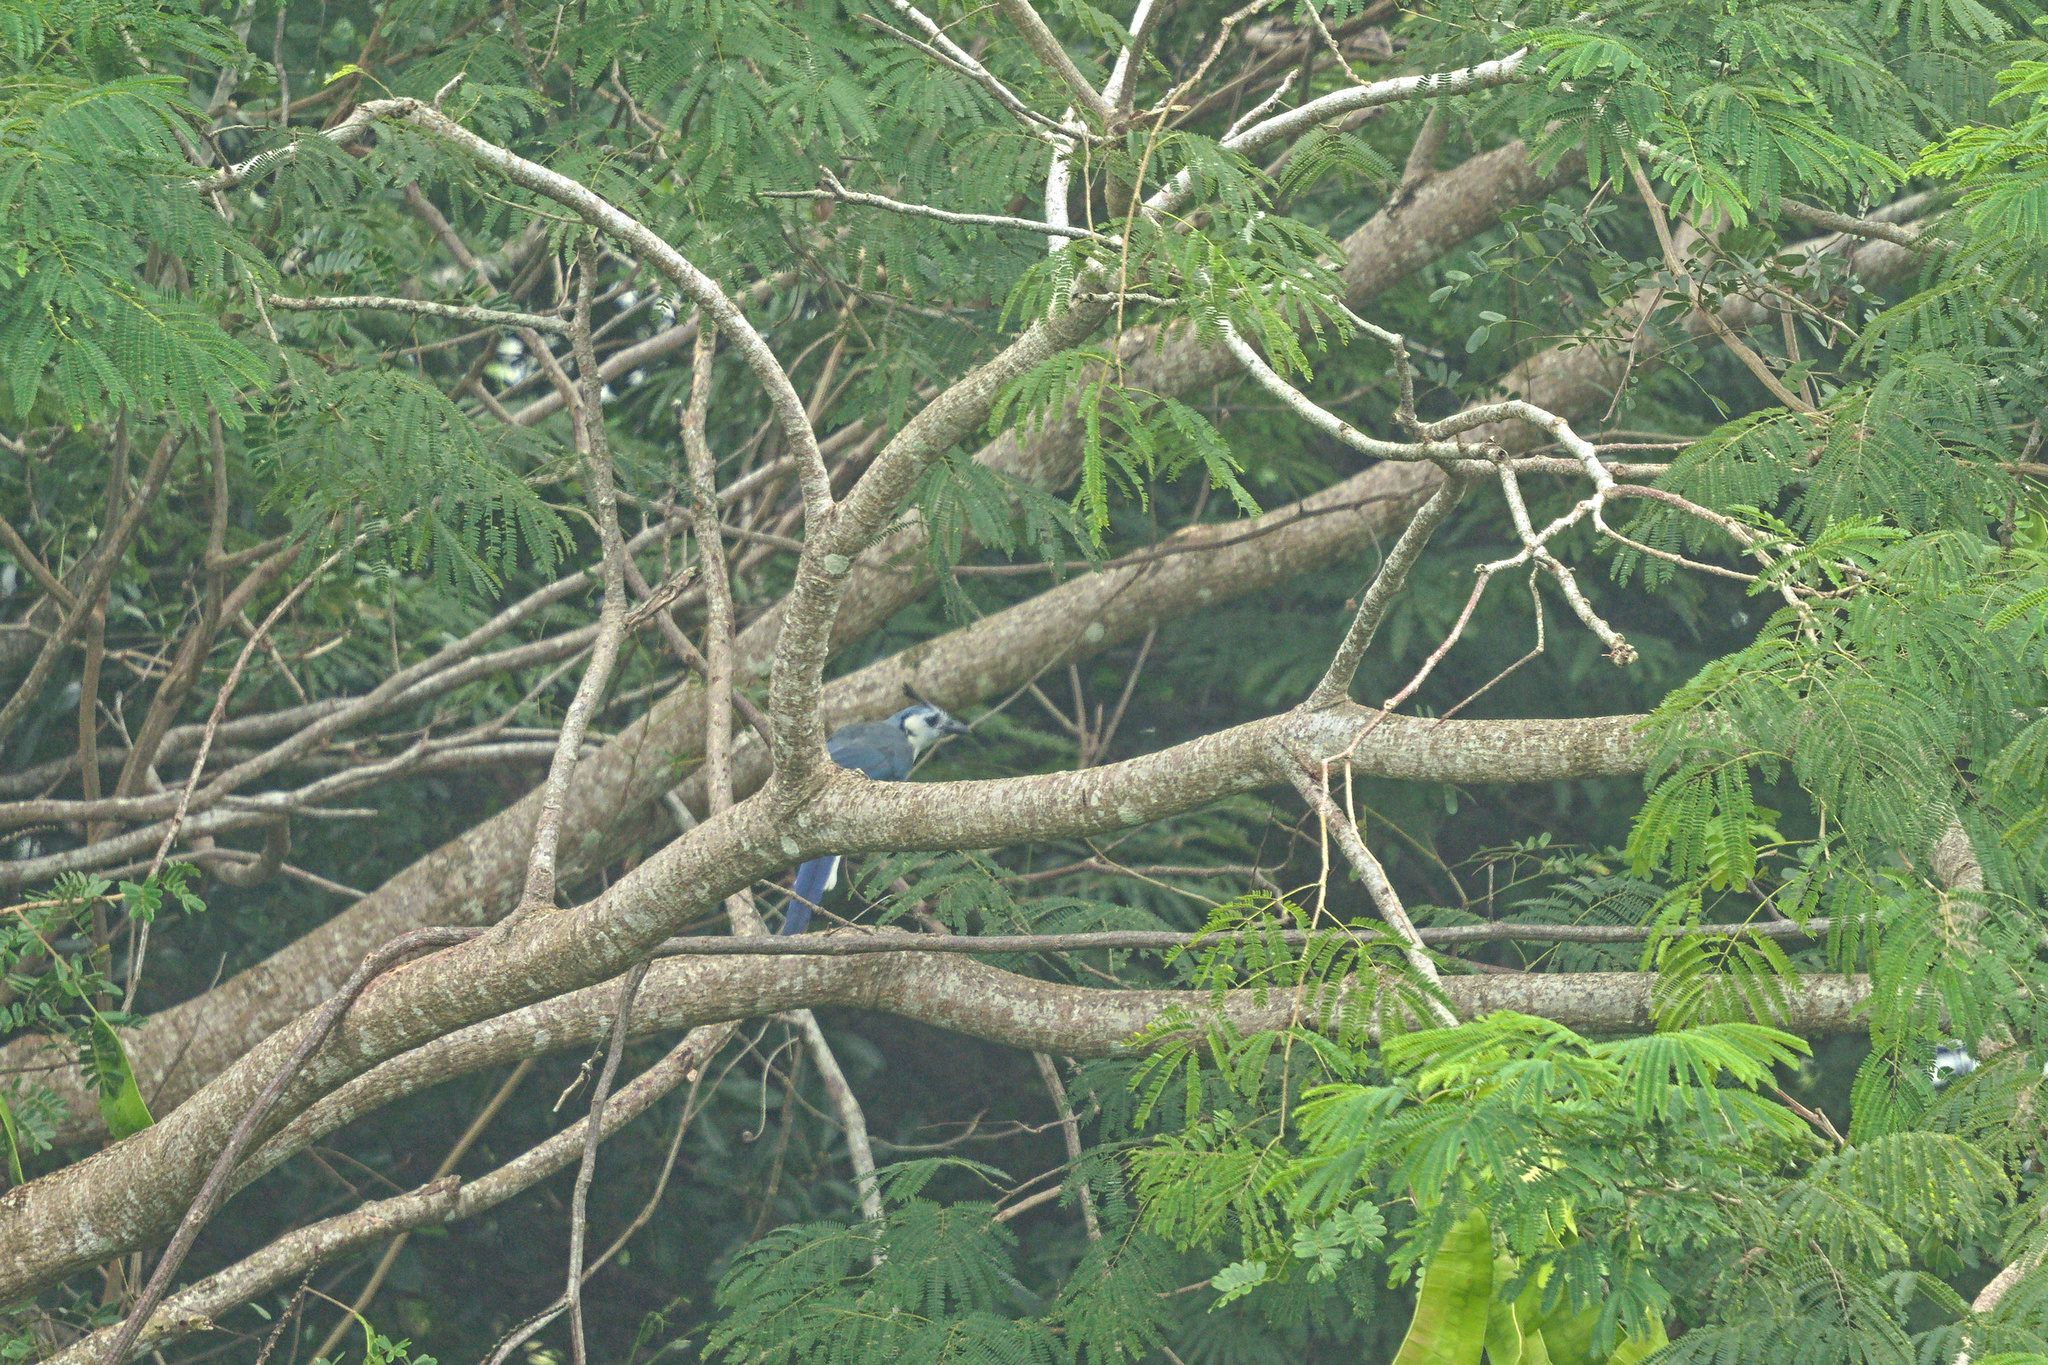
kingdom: Animalia
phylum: Chordata
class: Aves
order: Passeriformes
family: Corvidae
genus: Calocitta
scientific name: Calocitta formosa
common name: White-throated magpie-jay
